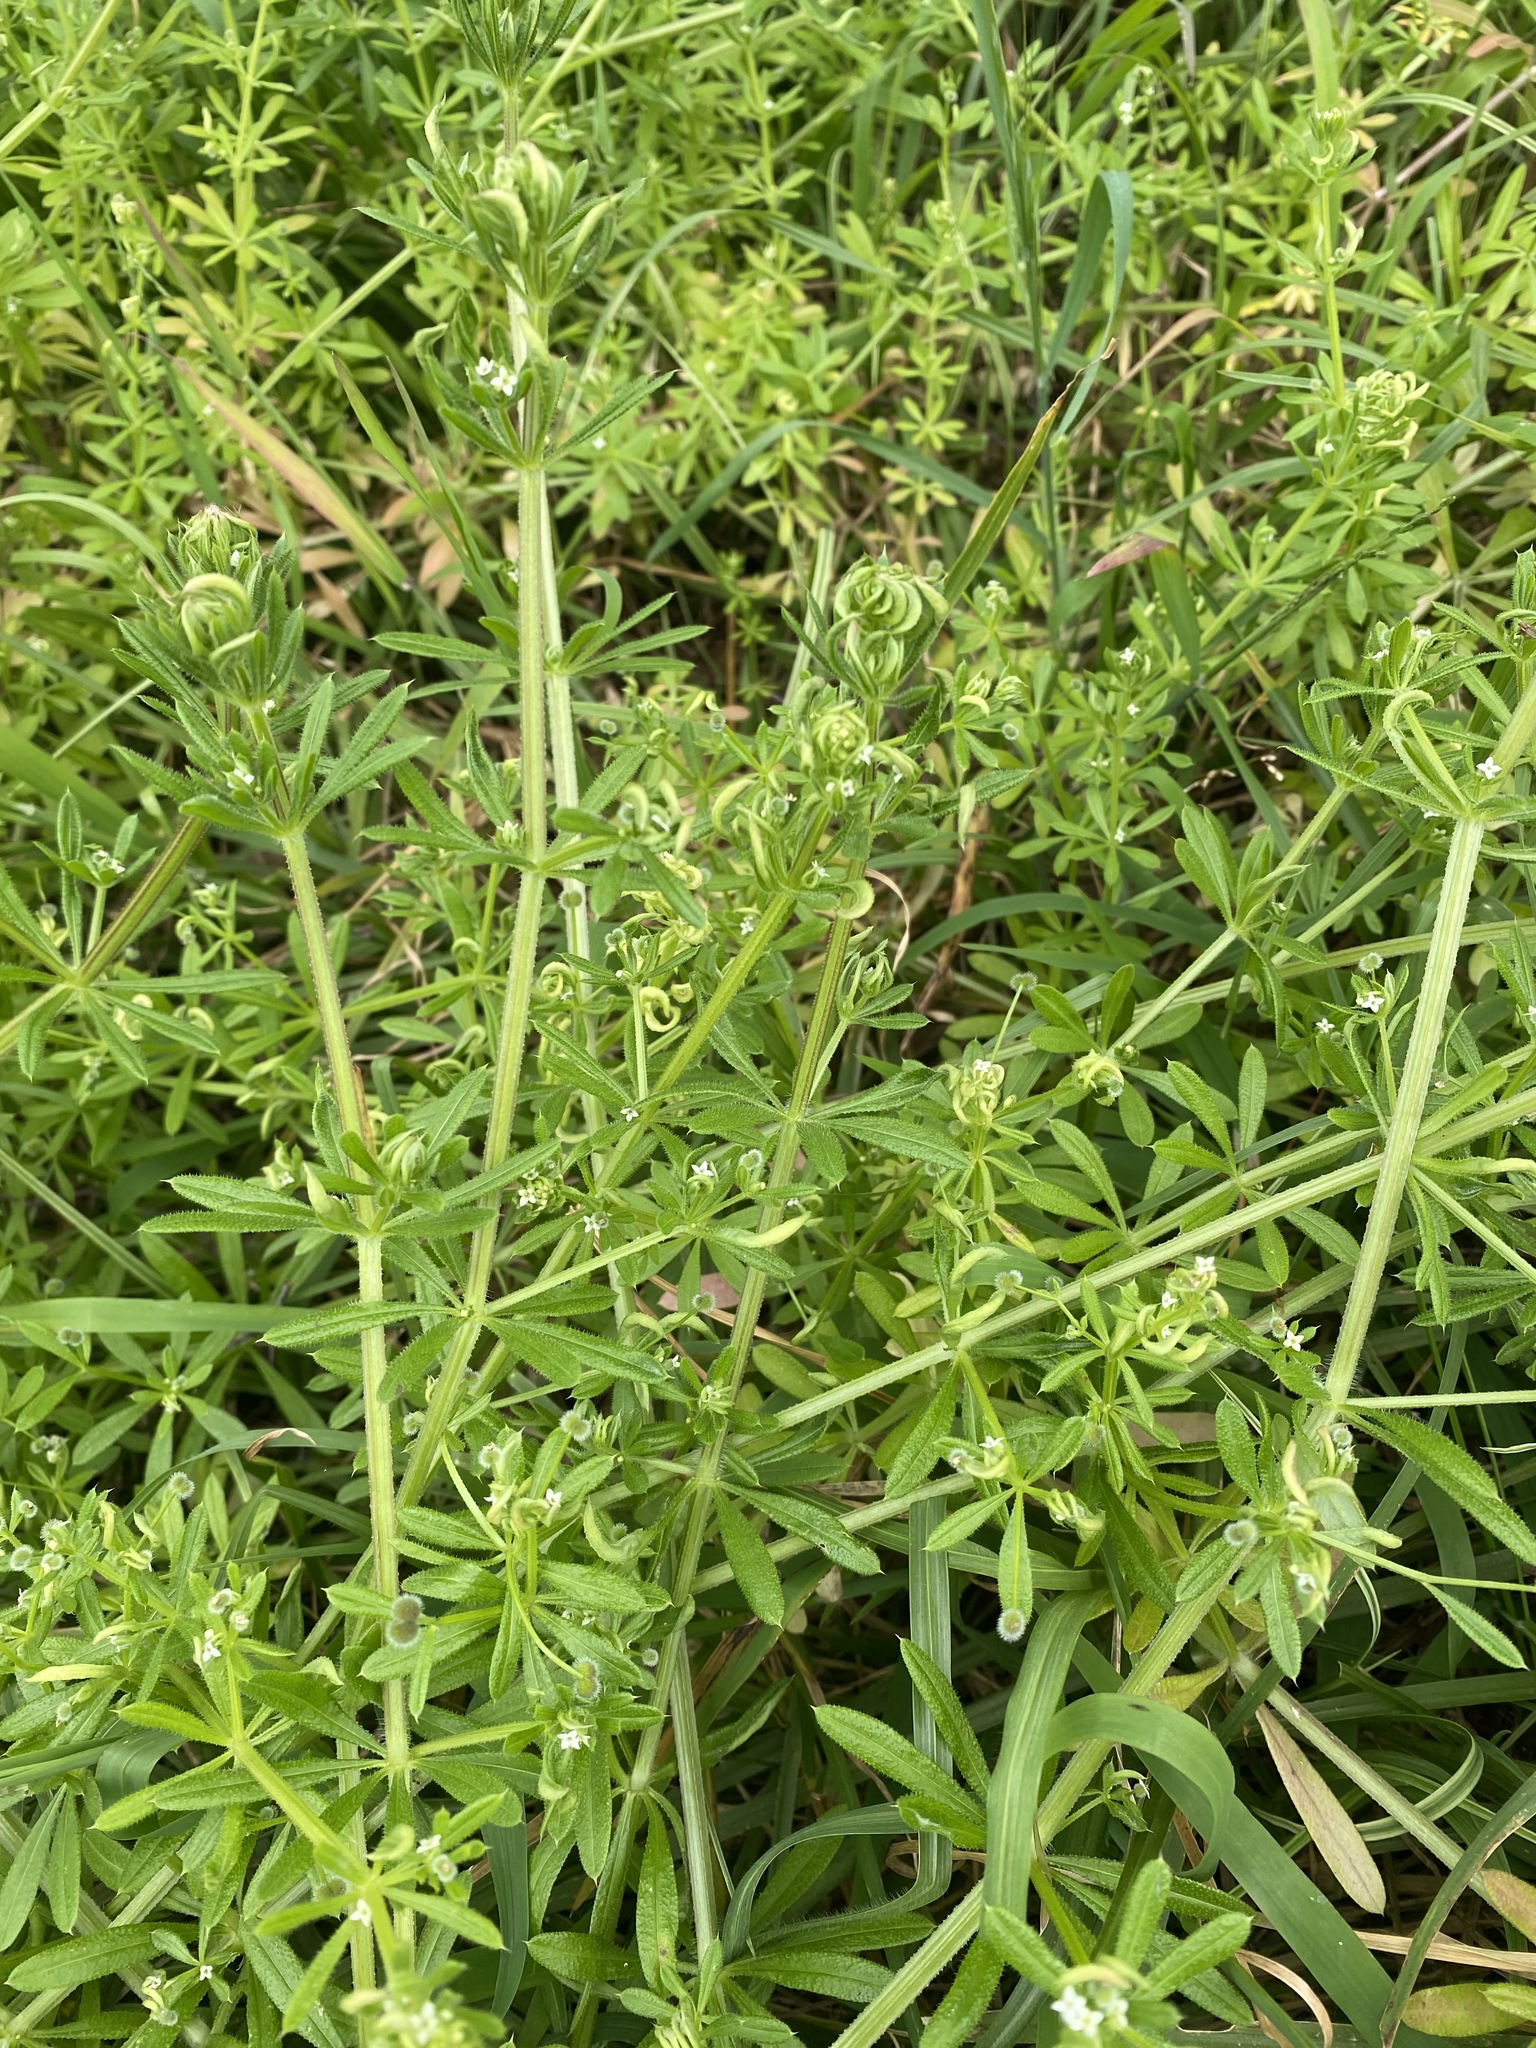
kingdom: Plantae
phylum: Tracheophyta
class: Magnoliopsida
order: Gentianales
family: Rubiaceae
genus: Galium
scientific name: Galium aparine
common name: Cleavers
